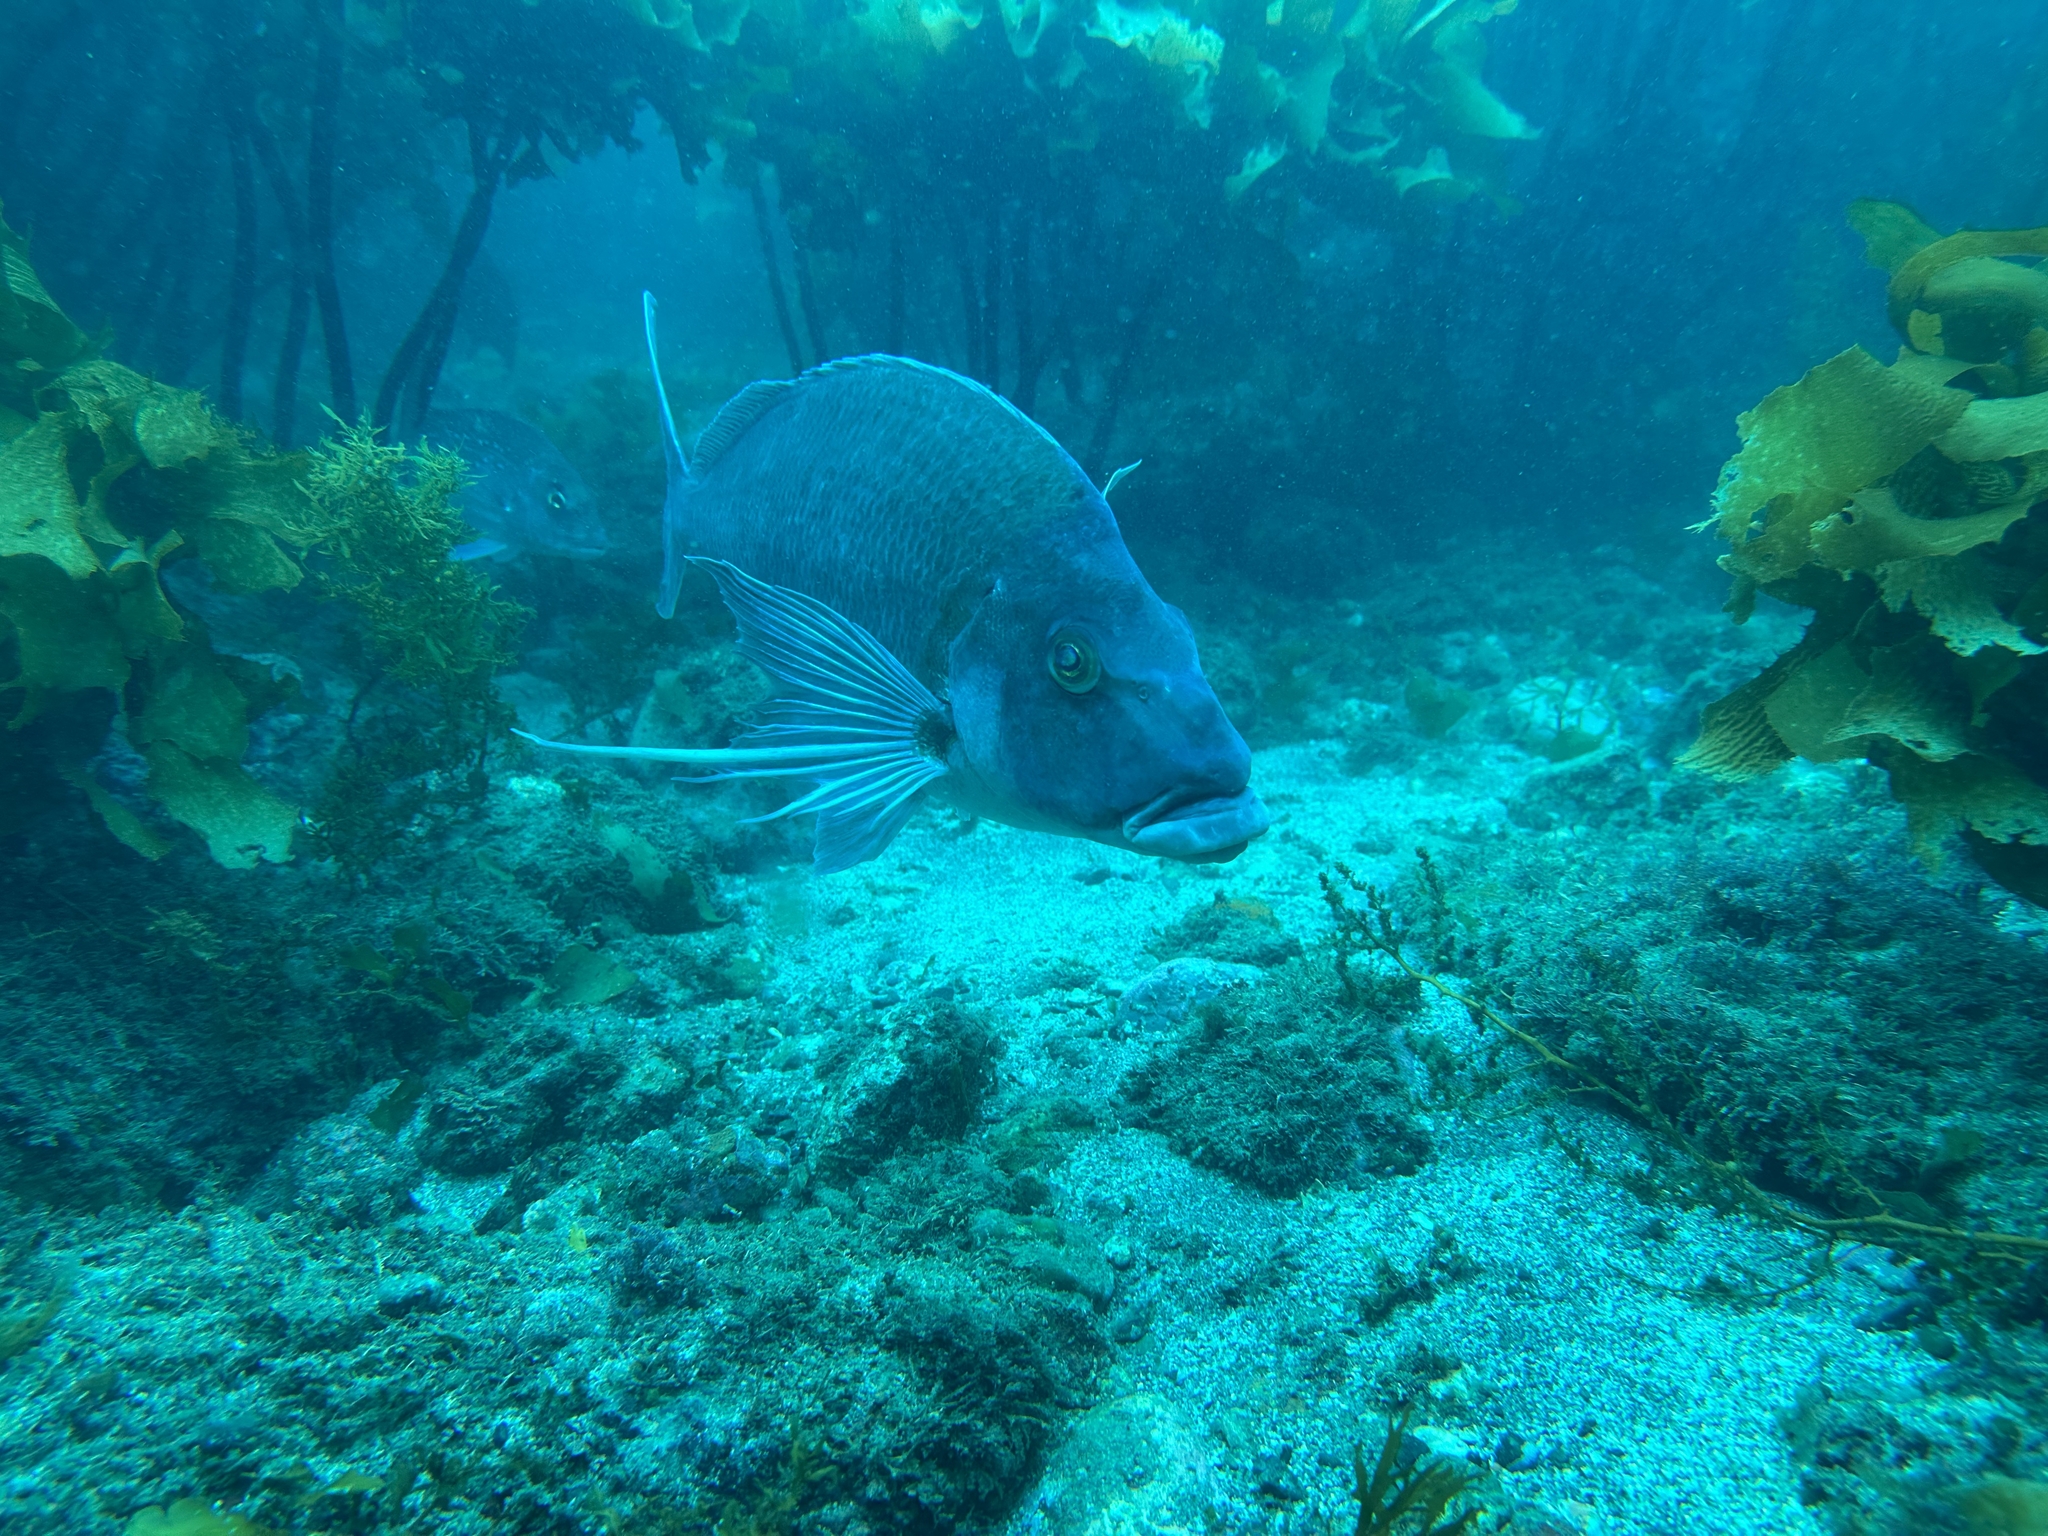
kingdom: Animalia
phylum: Chordata
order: Perciformes
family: Cheilodactylidae
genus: Nemadactylus
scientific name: Nemadactylus douglasii
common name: Porae
